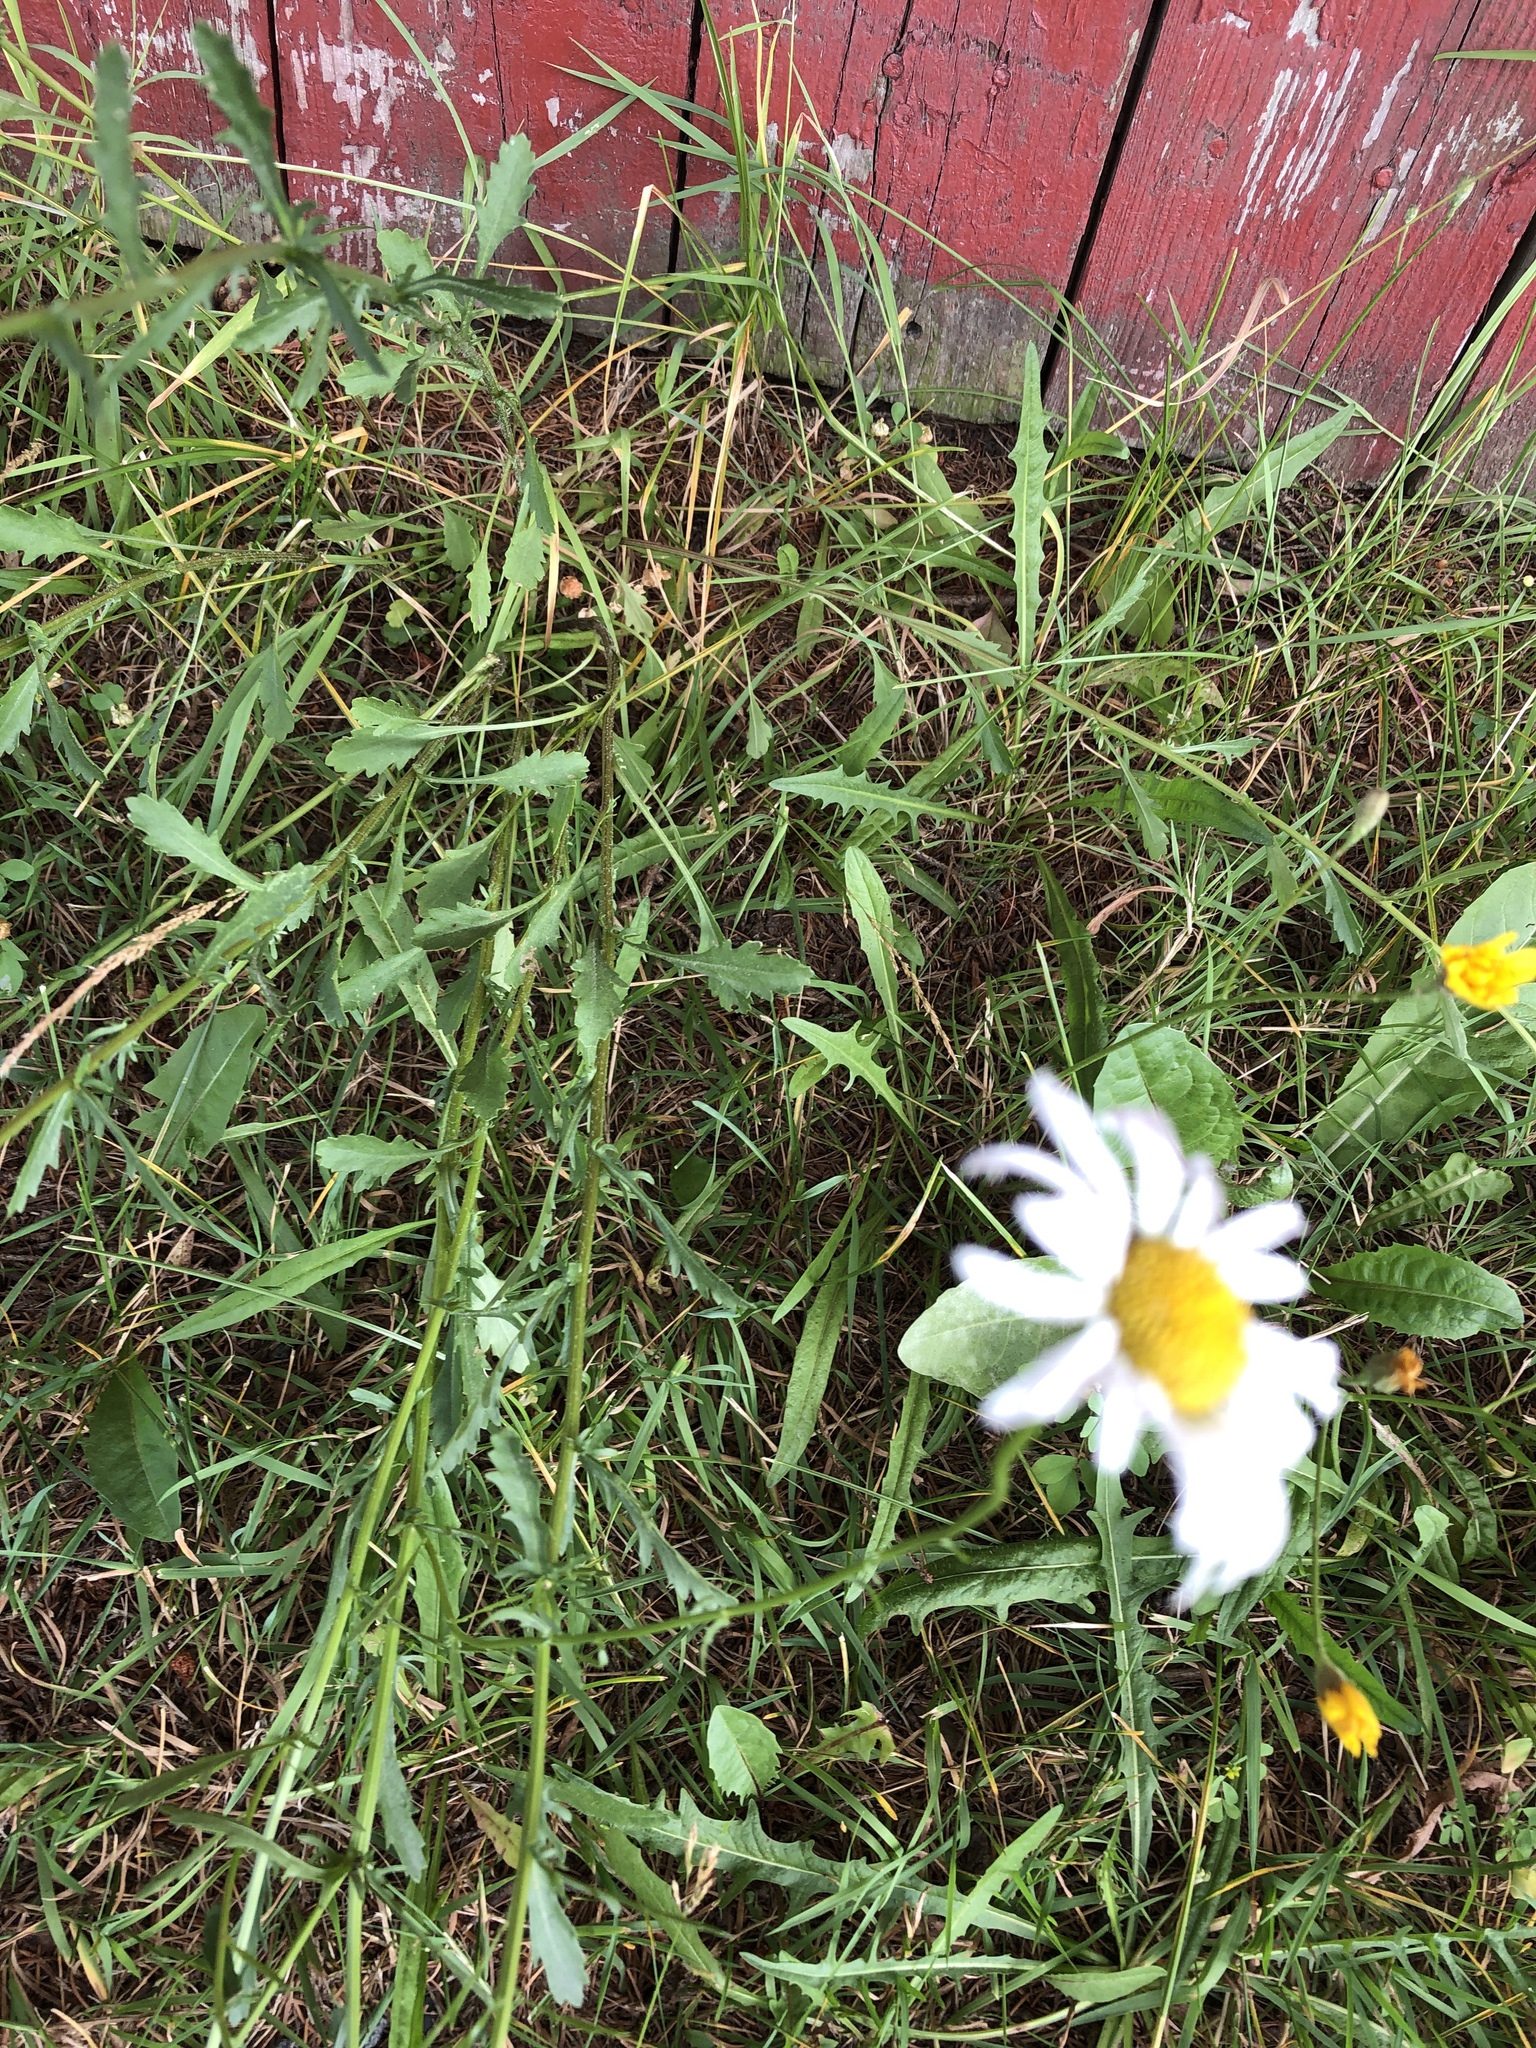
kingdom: Plantae
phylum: Tracheophyta
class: Magnoliopsida
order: Asterales
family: Asteraceae
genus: Leucanthemum
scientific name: Leucanthemum vulgare
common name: Oxeye daisy
